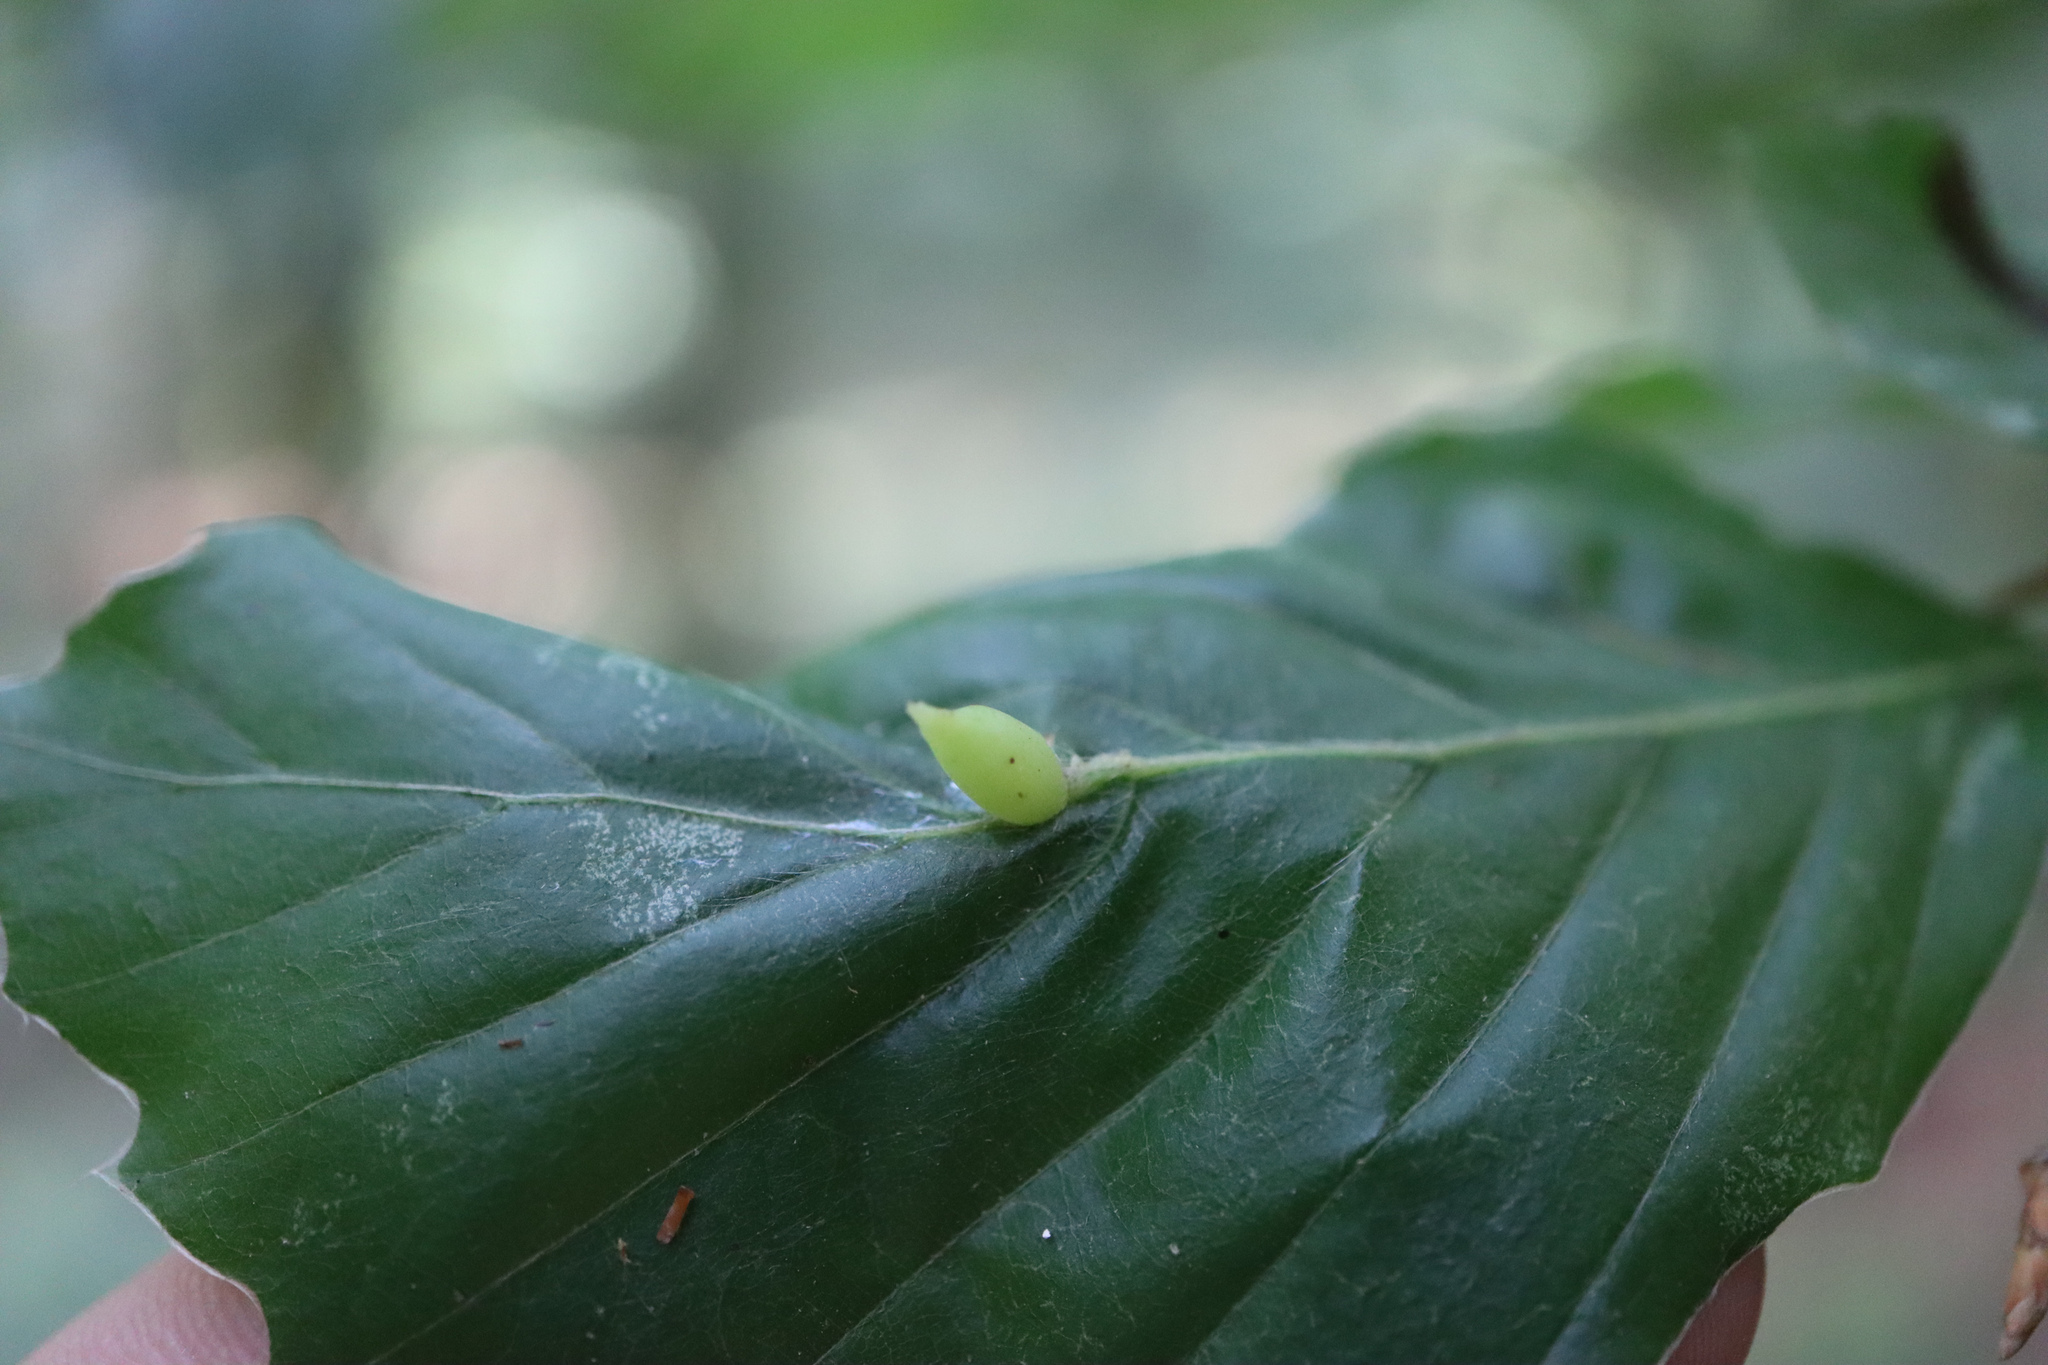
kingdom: Animalia
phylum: Arthropoda
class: Insecta
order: Diptera
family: Cecidomyiidae
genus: Mikiola
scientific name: Mikiola fagi
